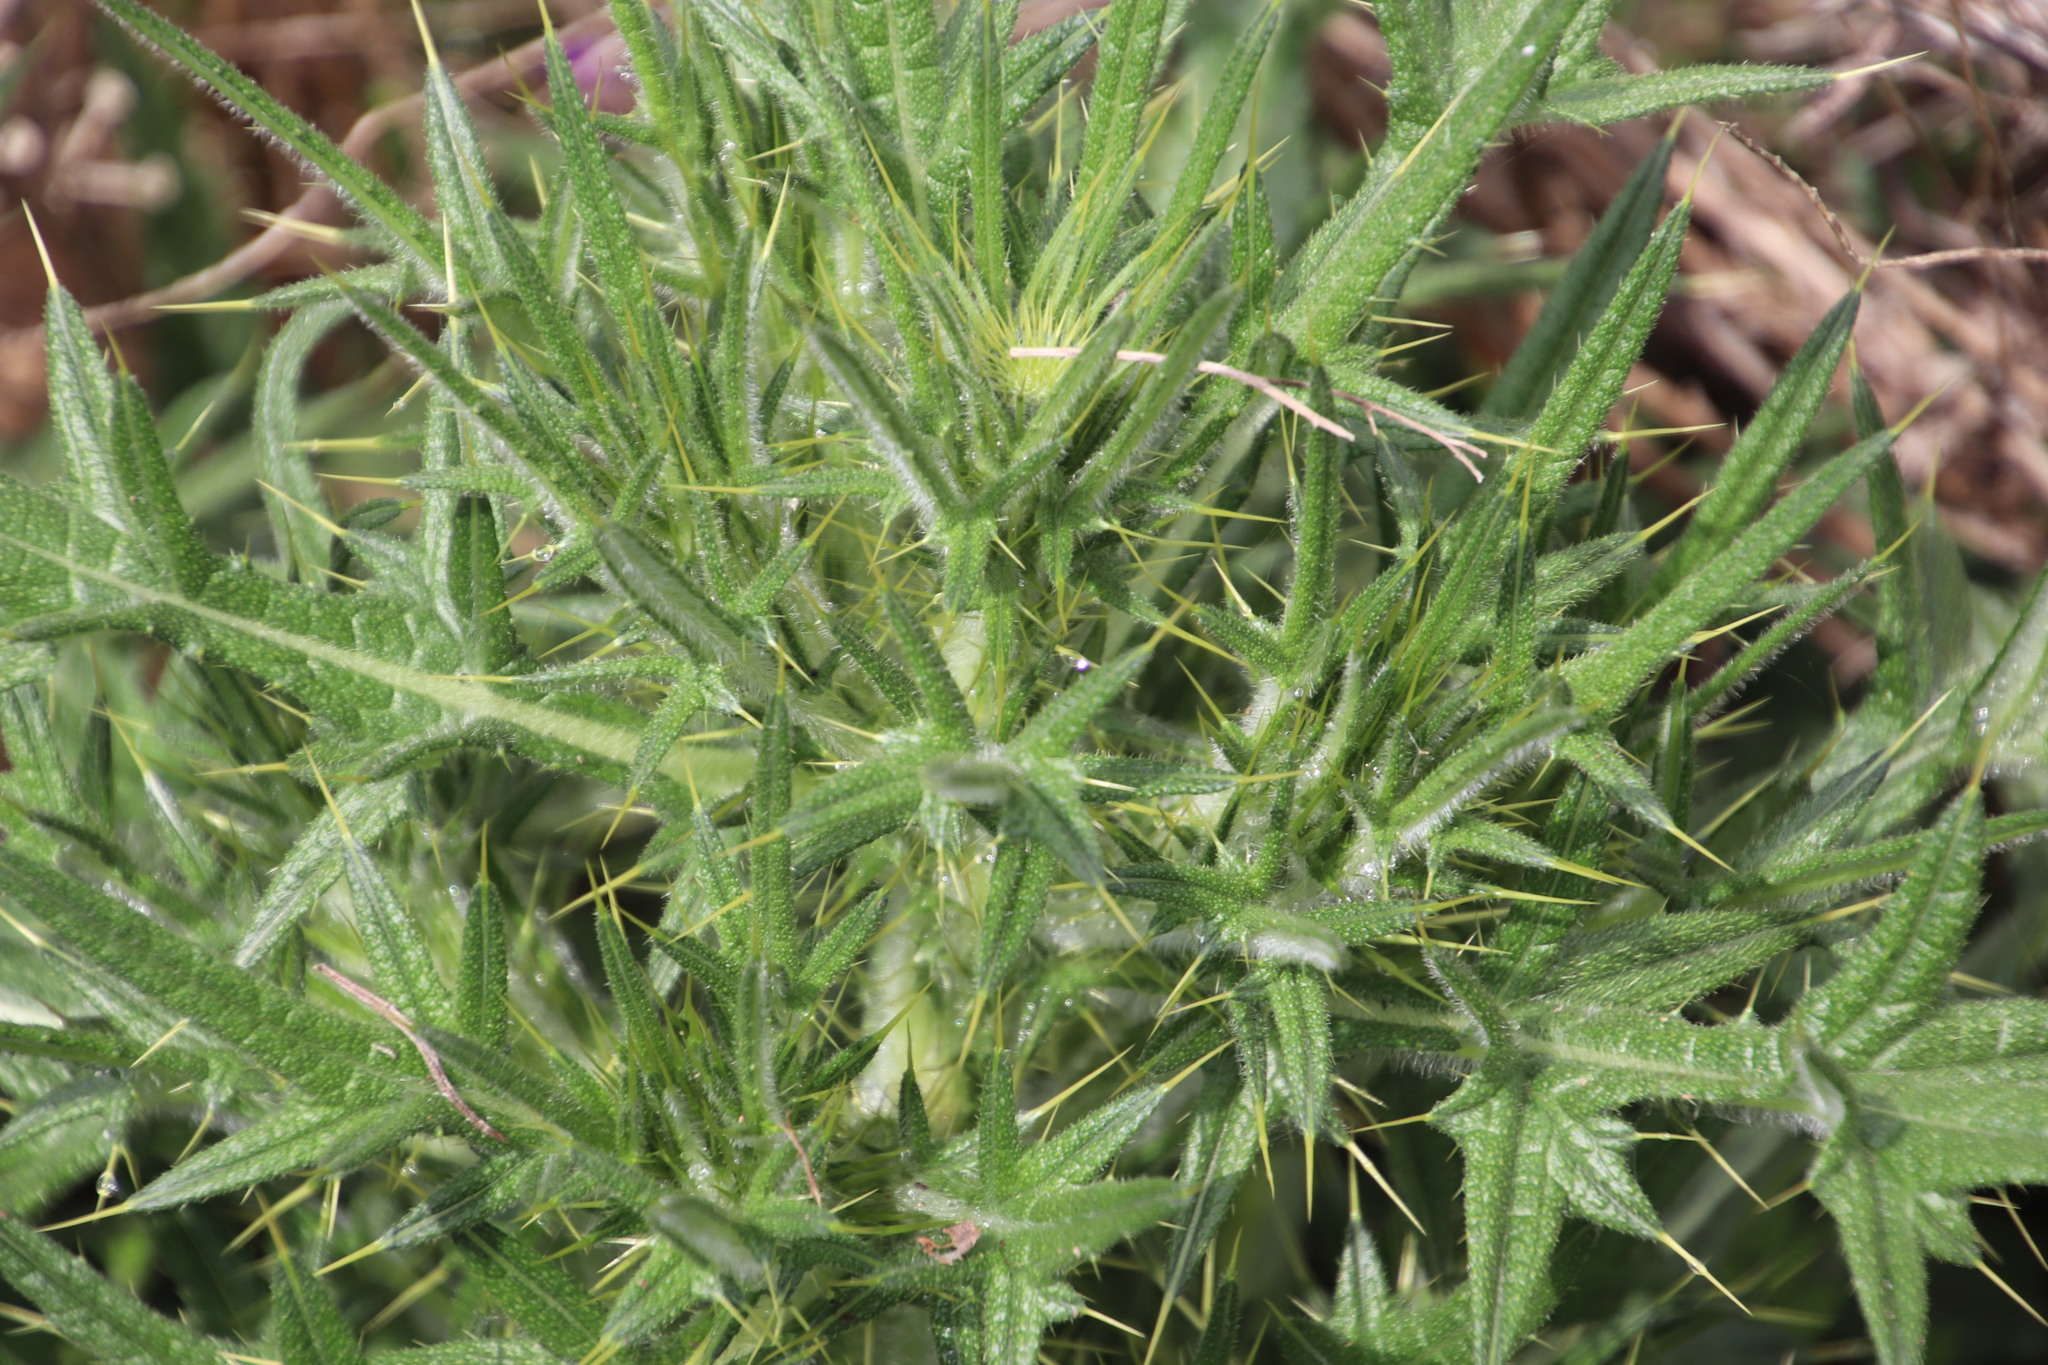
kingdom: Plantae
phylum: Tracheophyta
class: Magnoliopsida
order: Asterales
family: Asteraceae
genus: Cirsium
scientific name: Cirsium vulgare
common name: Bull thistle
